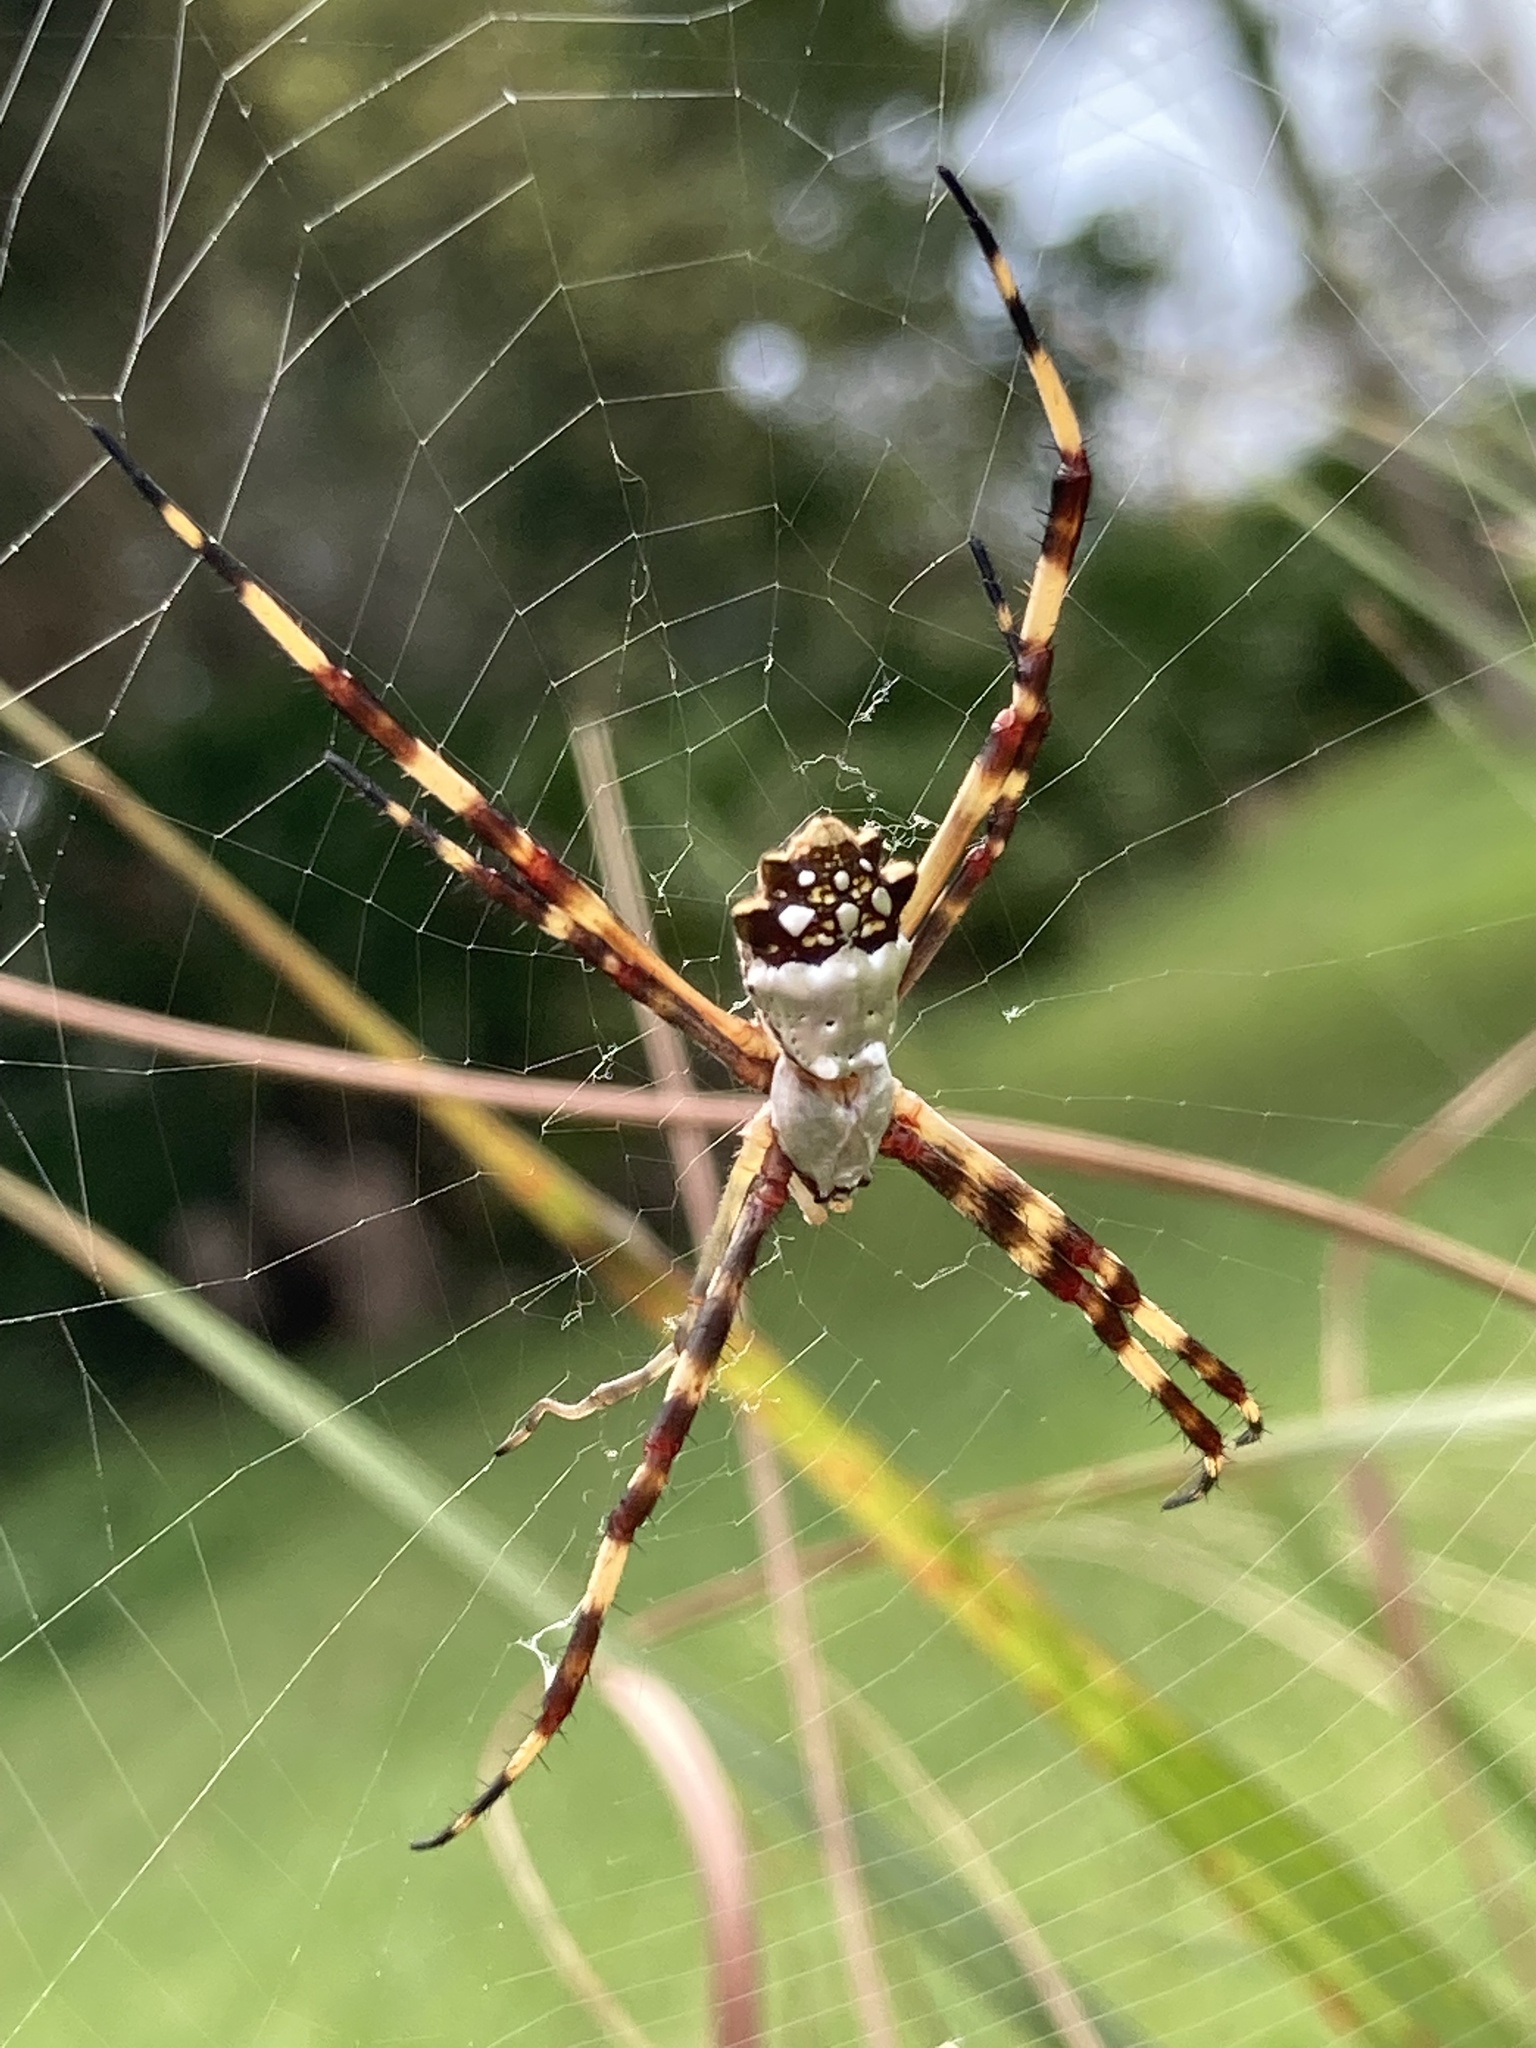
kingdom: Animalia
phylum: Arthropoda
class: Arachnida
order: Araneae
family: Araneidae
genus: Argiope
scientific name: Argiope argentata
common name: Orb weavers
